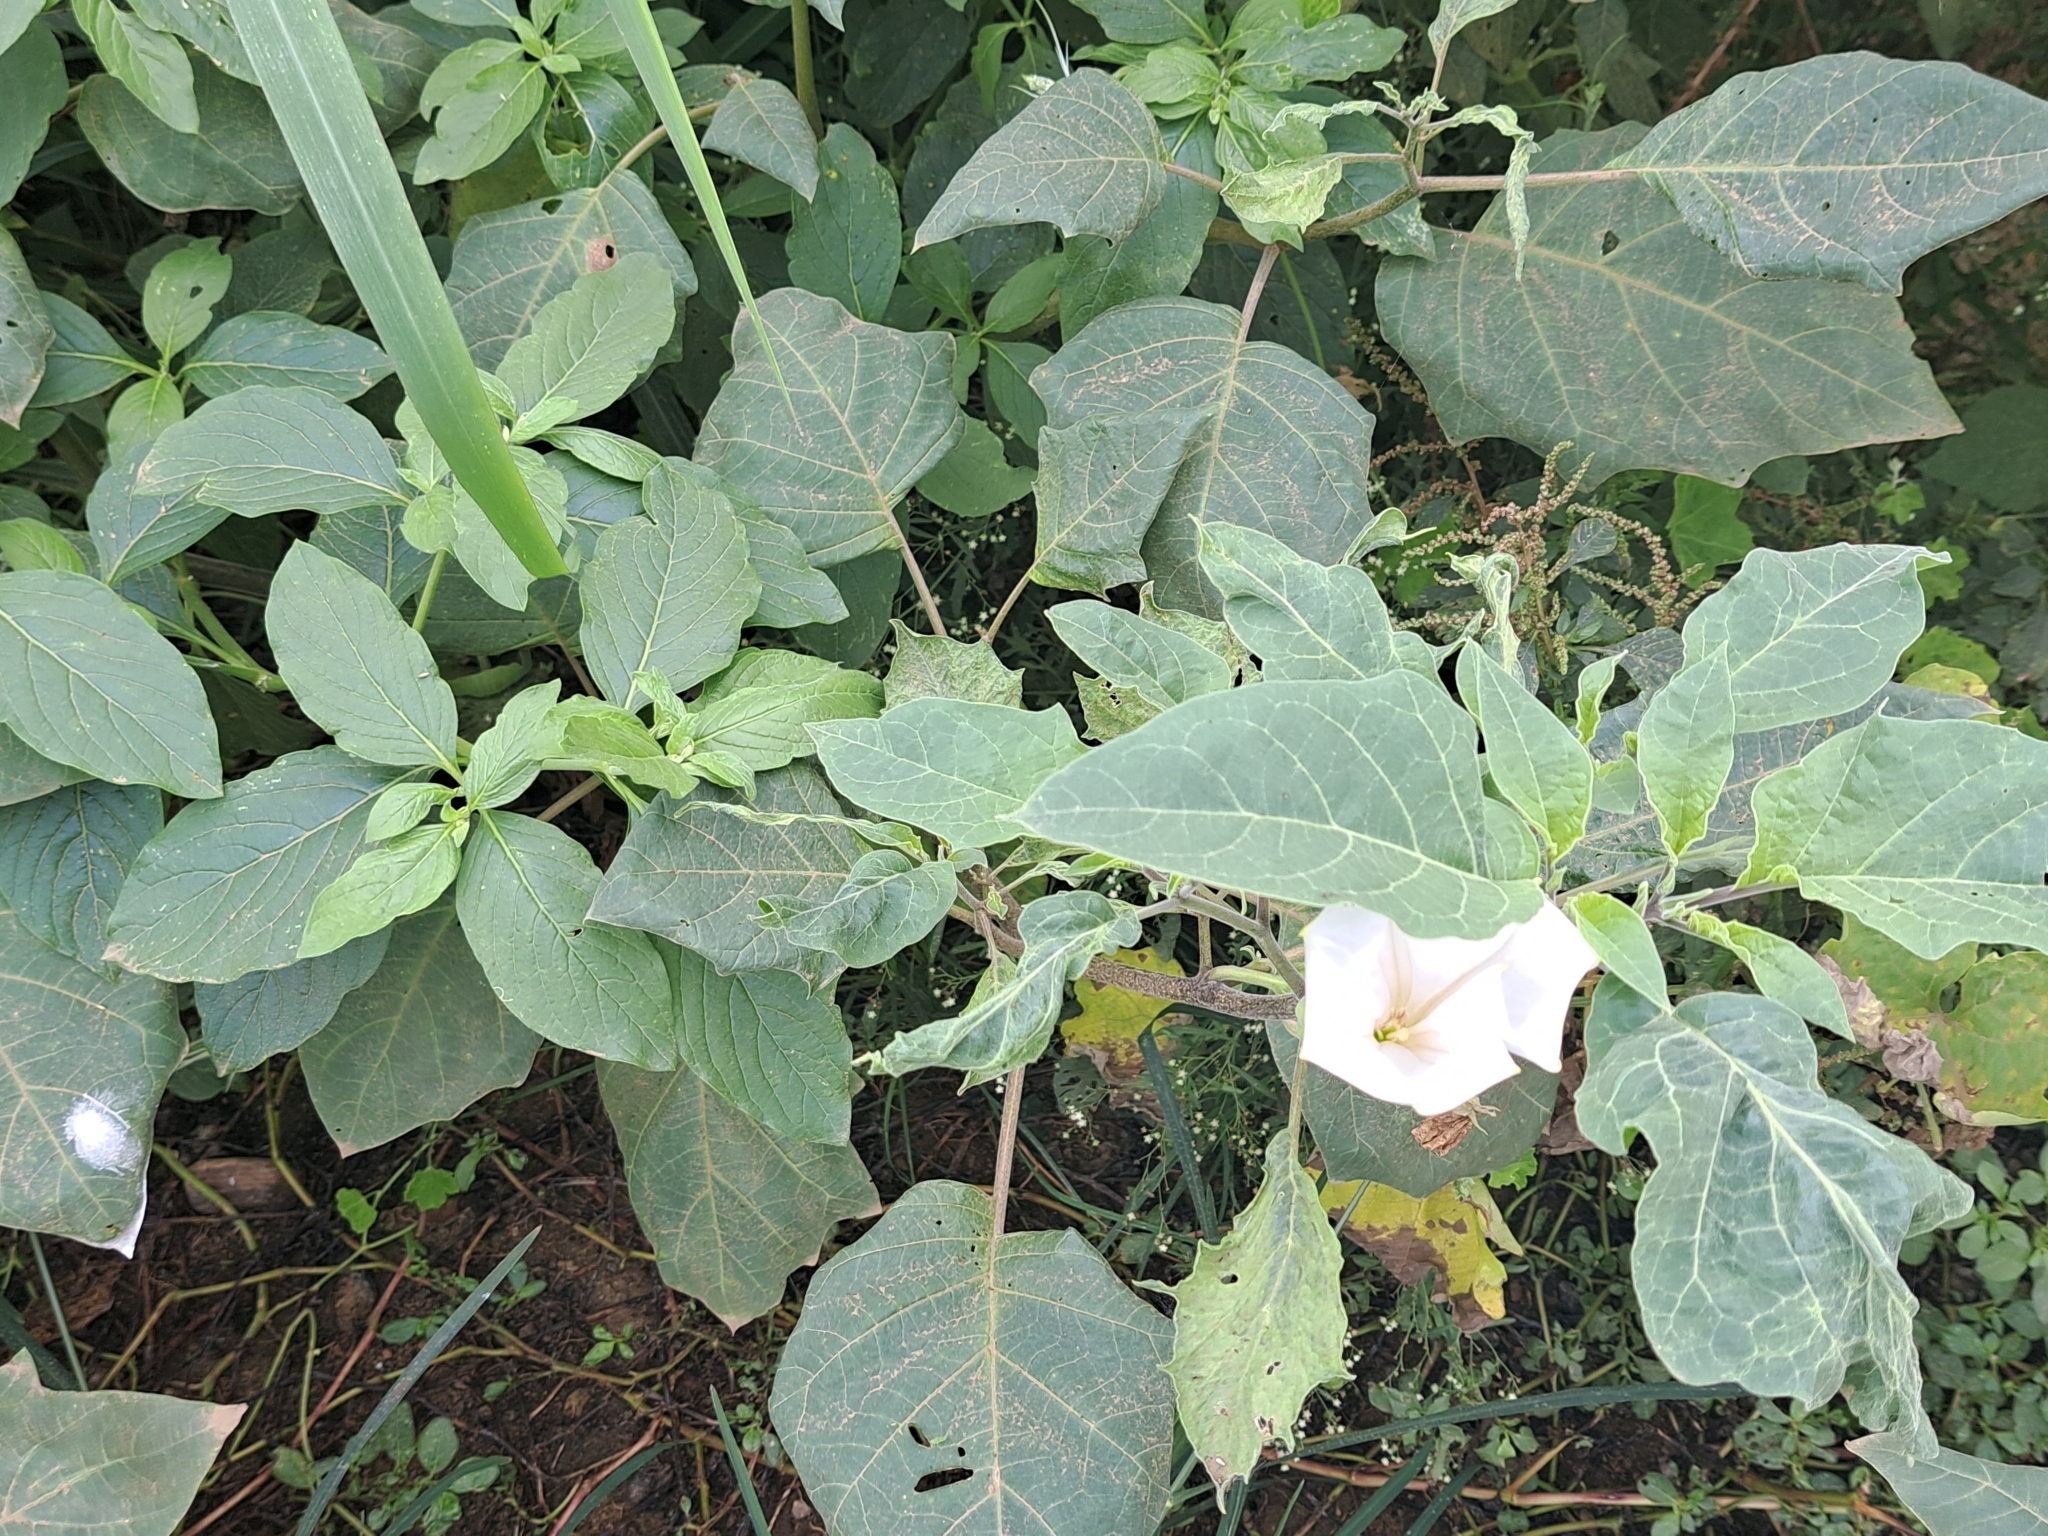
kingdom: Plantae
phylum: Tracheophyta
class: Magnoliopsida
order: Solanales
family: Solanaceae
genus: Datura
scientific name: Datura innoxia
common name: Downy thorn-apple
